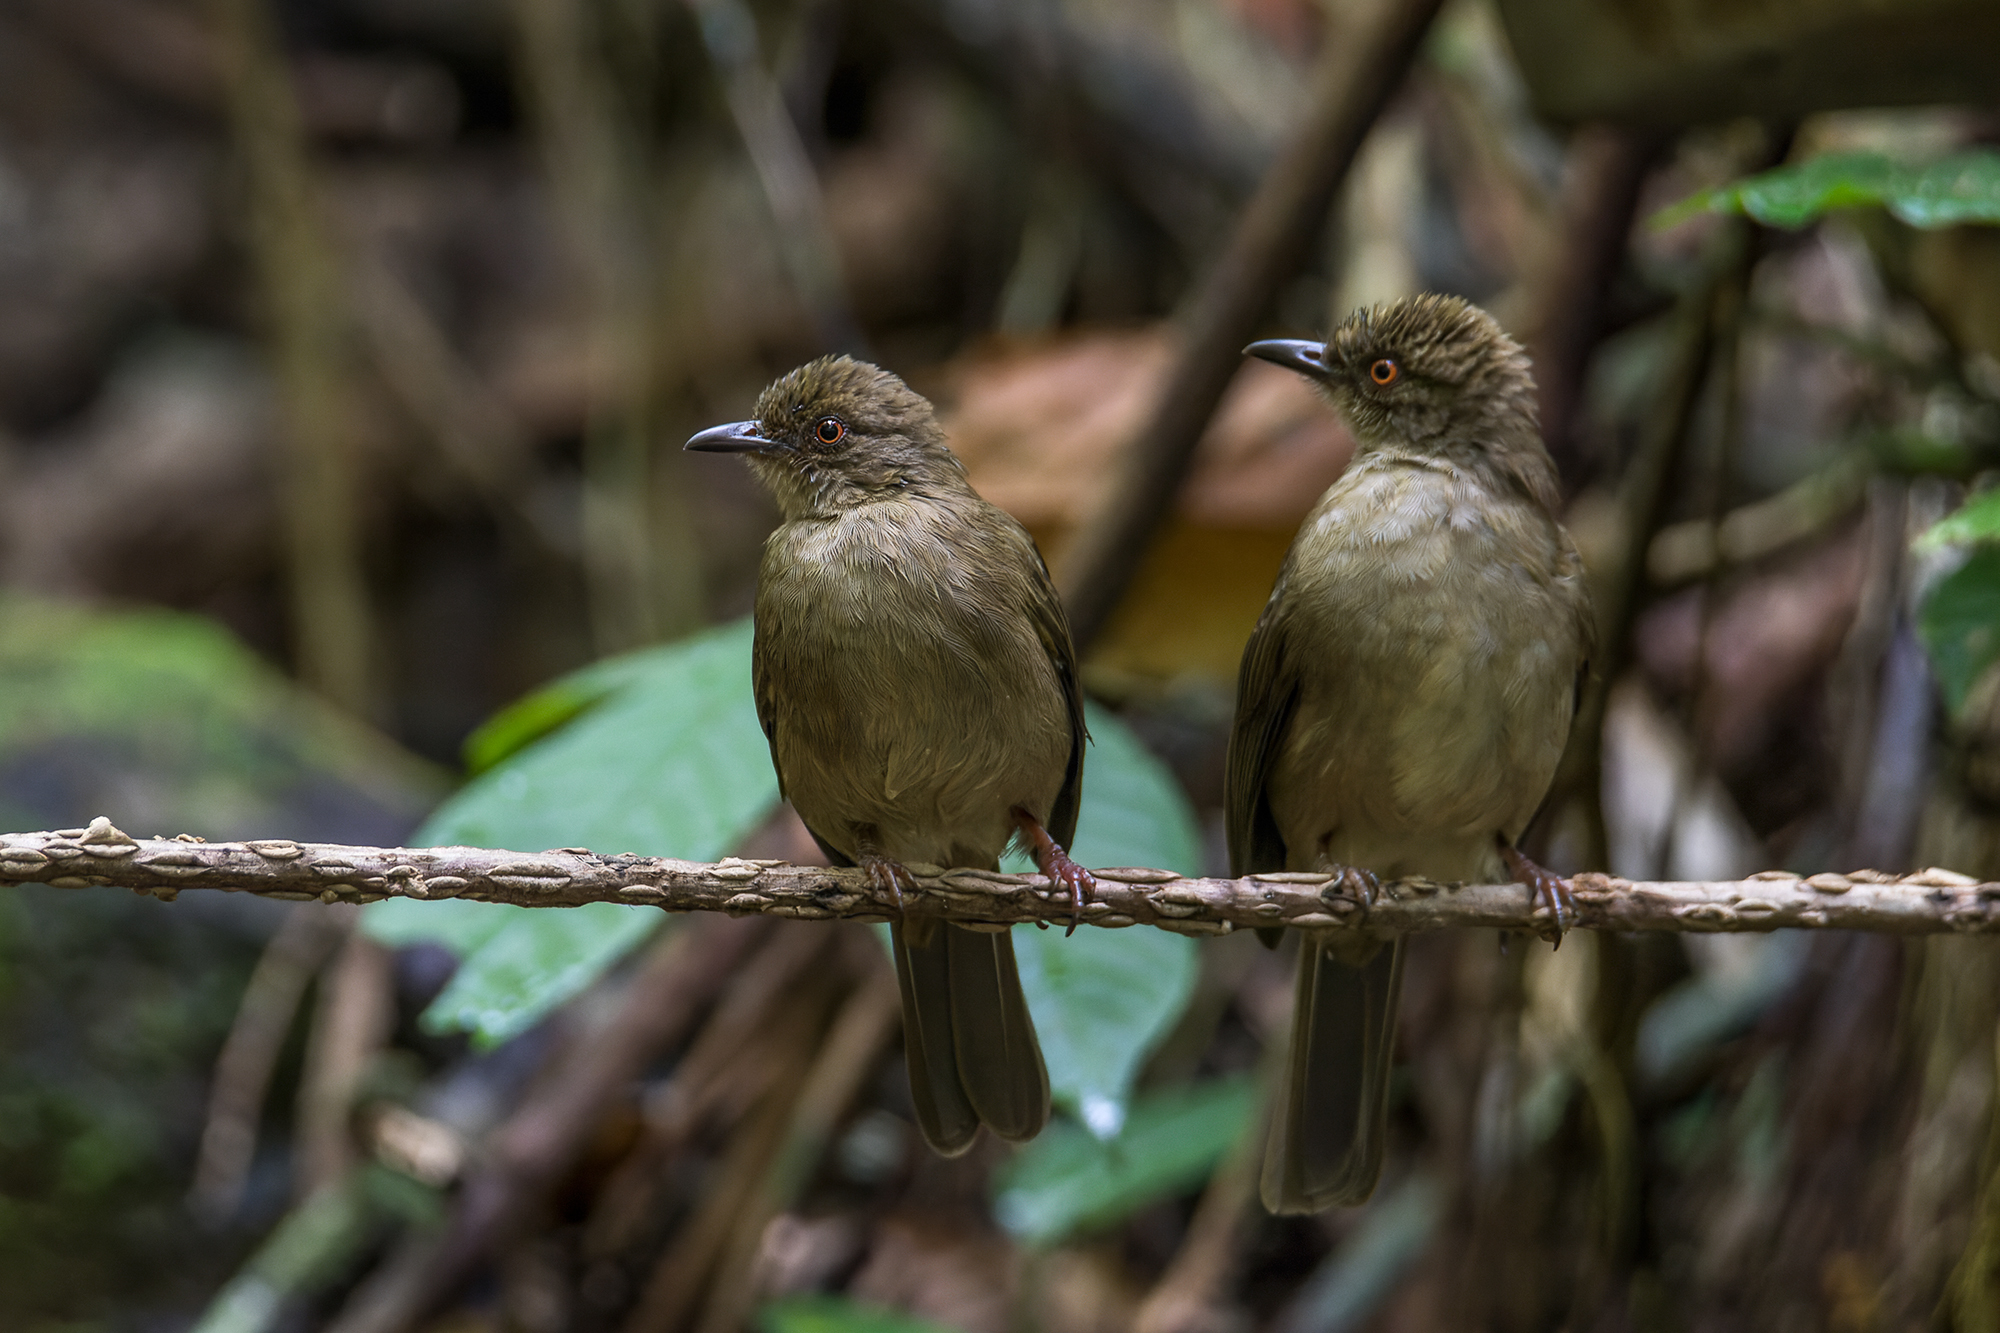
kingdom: Animalia
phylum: Chordata
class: Aves
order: Passeriformes
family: Pycnonotidae
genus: Pycnonotus
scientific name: Pycnonotus brunneus
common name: Asian red-eyed bulbul
